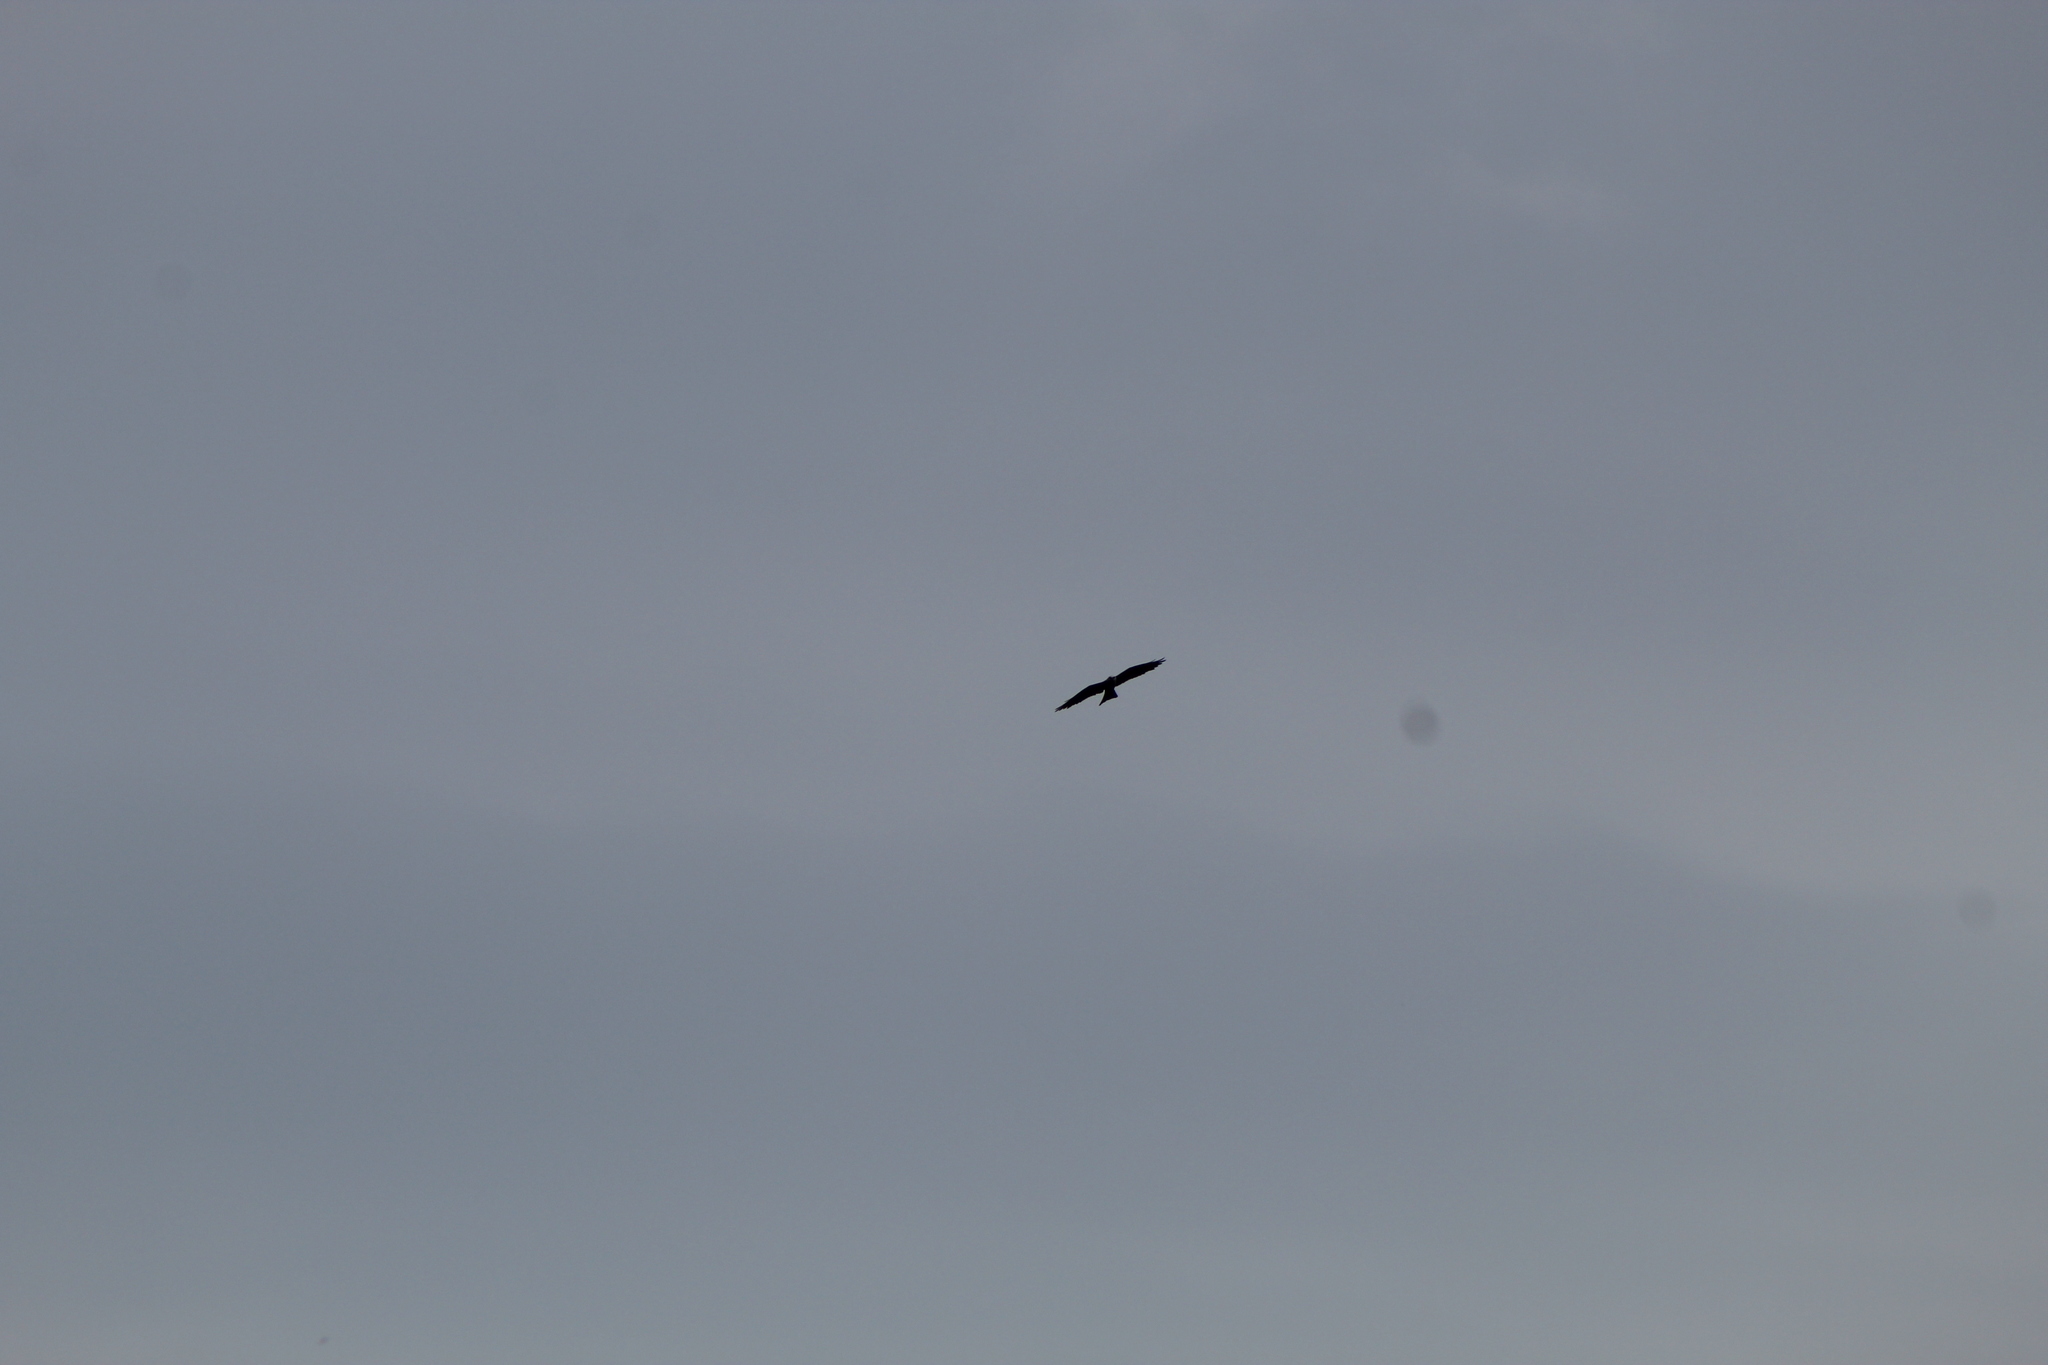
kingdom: Animalia
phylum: Chordata
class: Aves
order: Accipitriformes
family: Accipitridae
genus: Ictinia
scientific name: Ictinia mississippiensis
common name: Mississippi kite
